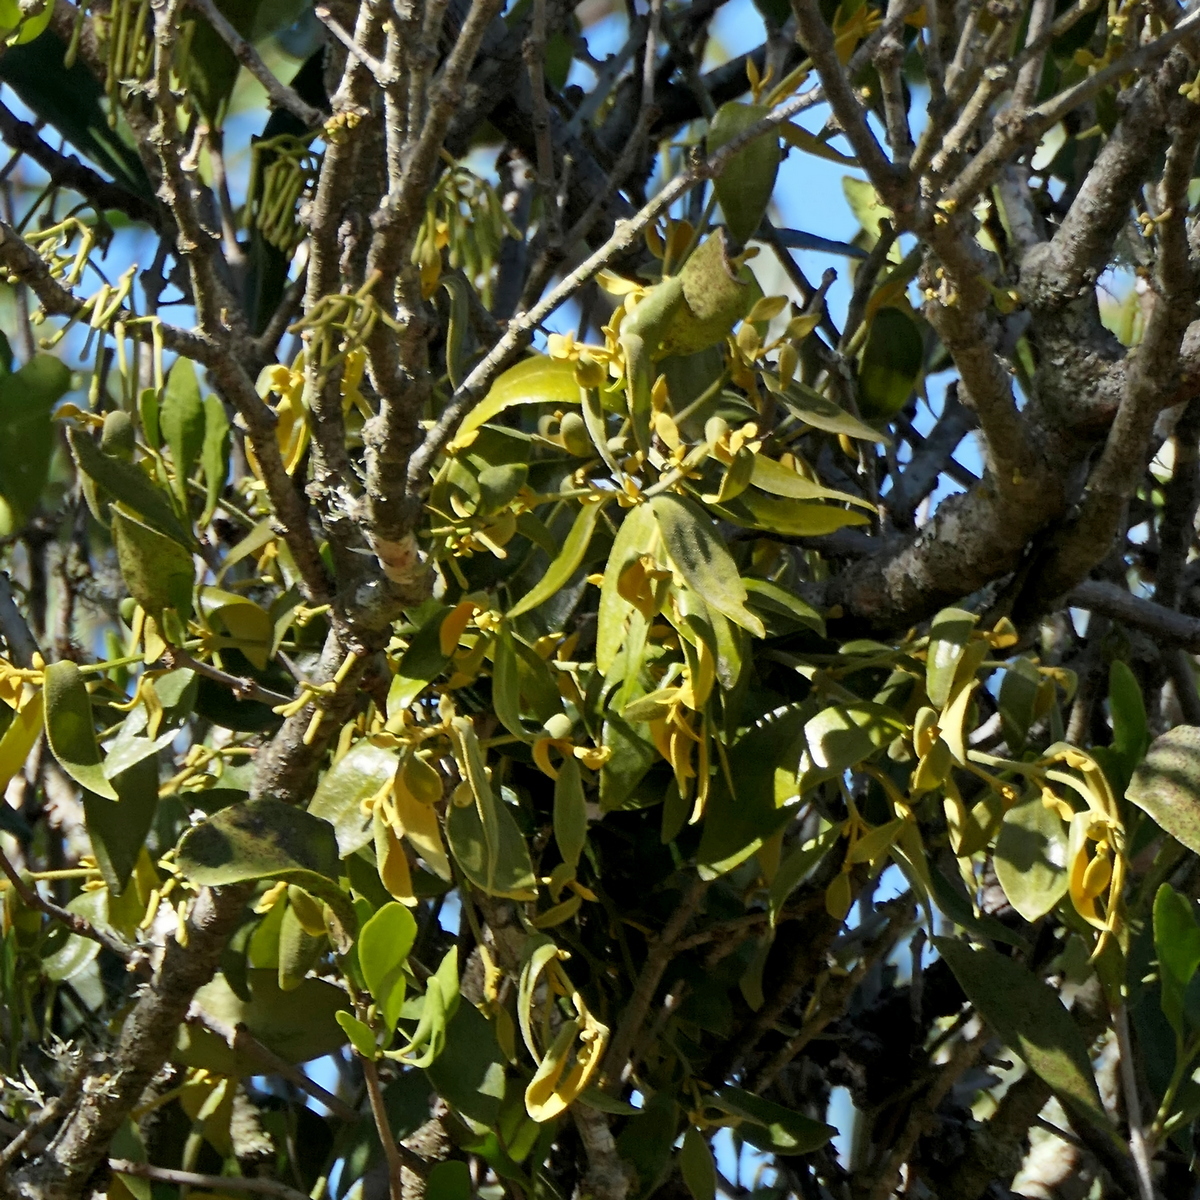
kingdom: Plantae
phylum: Tracheophyta
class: Magnoliopsida
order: Santalales
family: Viscaceae
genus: Notothixos
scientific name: Notothixos subaureus
